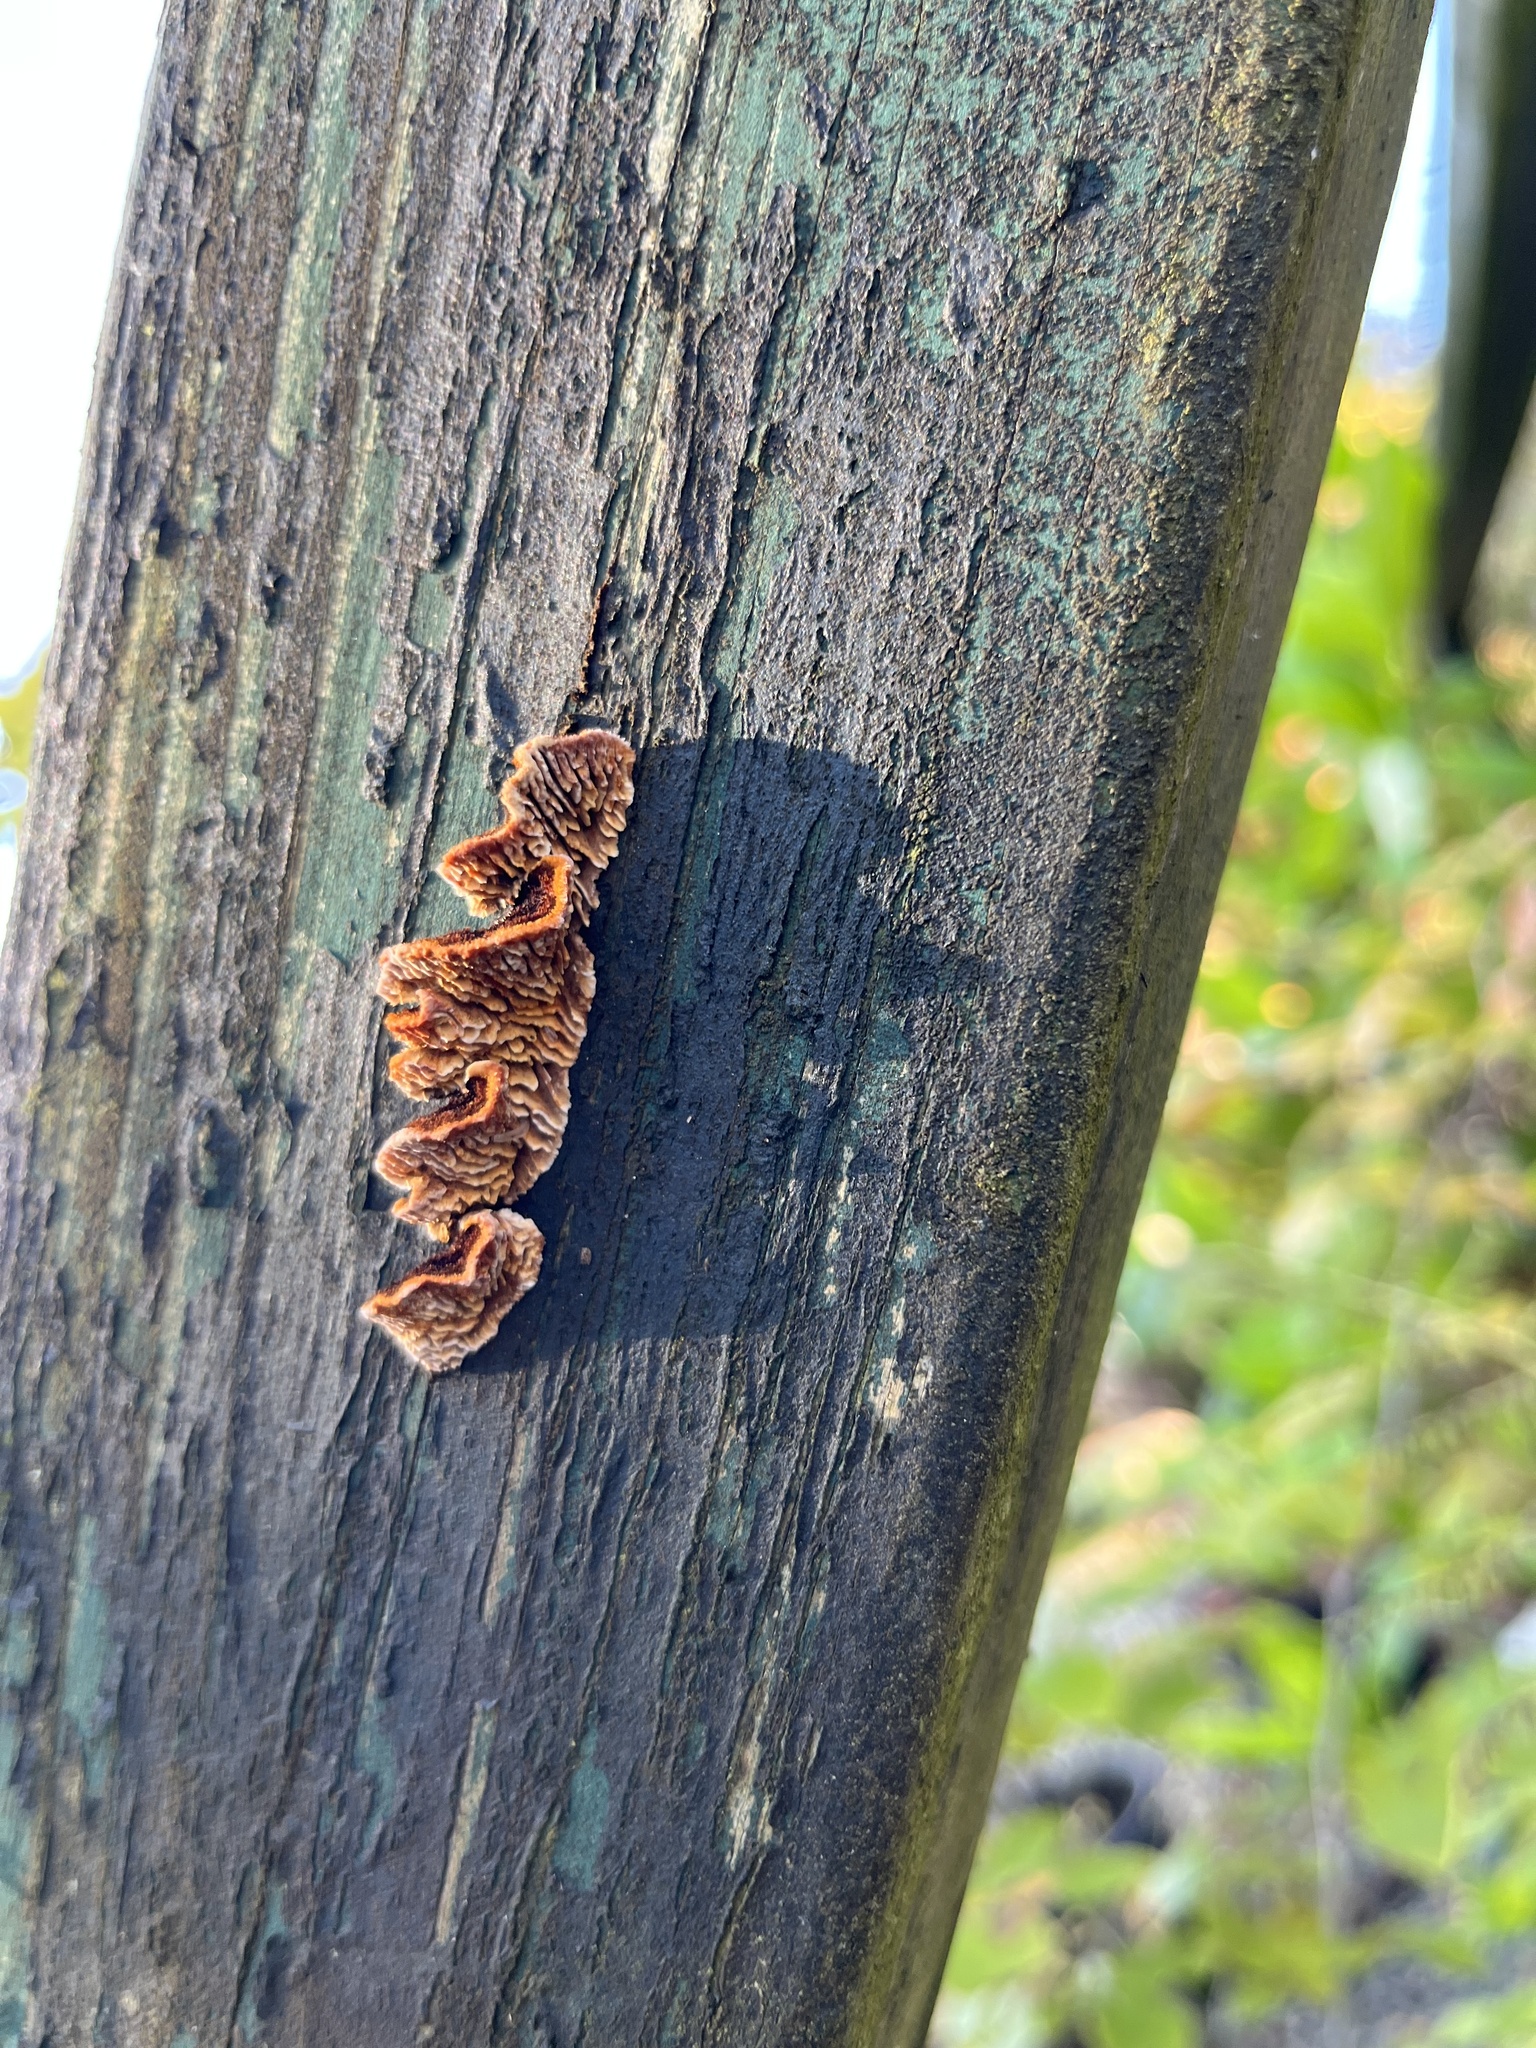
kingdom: Fungi
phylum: Basidiomycota
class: Agaricomycetes
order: Gloeophyllales
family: Gloeophyllaceae
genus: Gloeophyllum
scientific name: Gloeophyllum sepiarium
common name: Conifer mazegill
